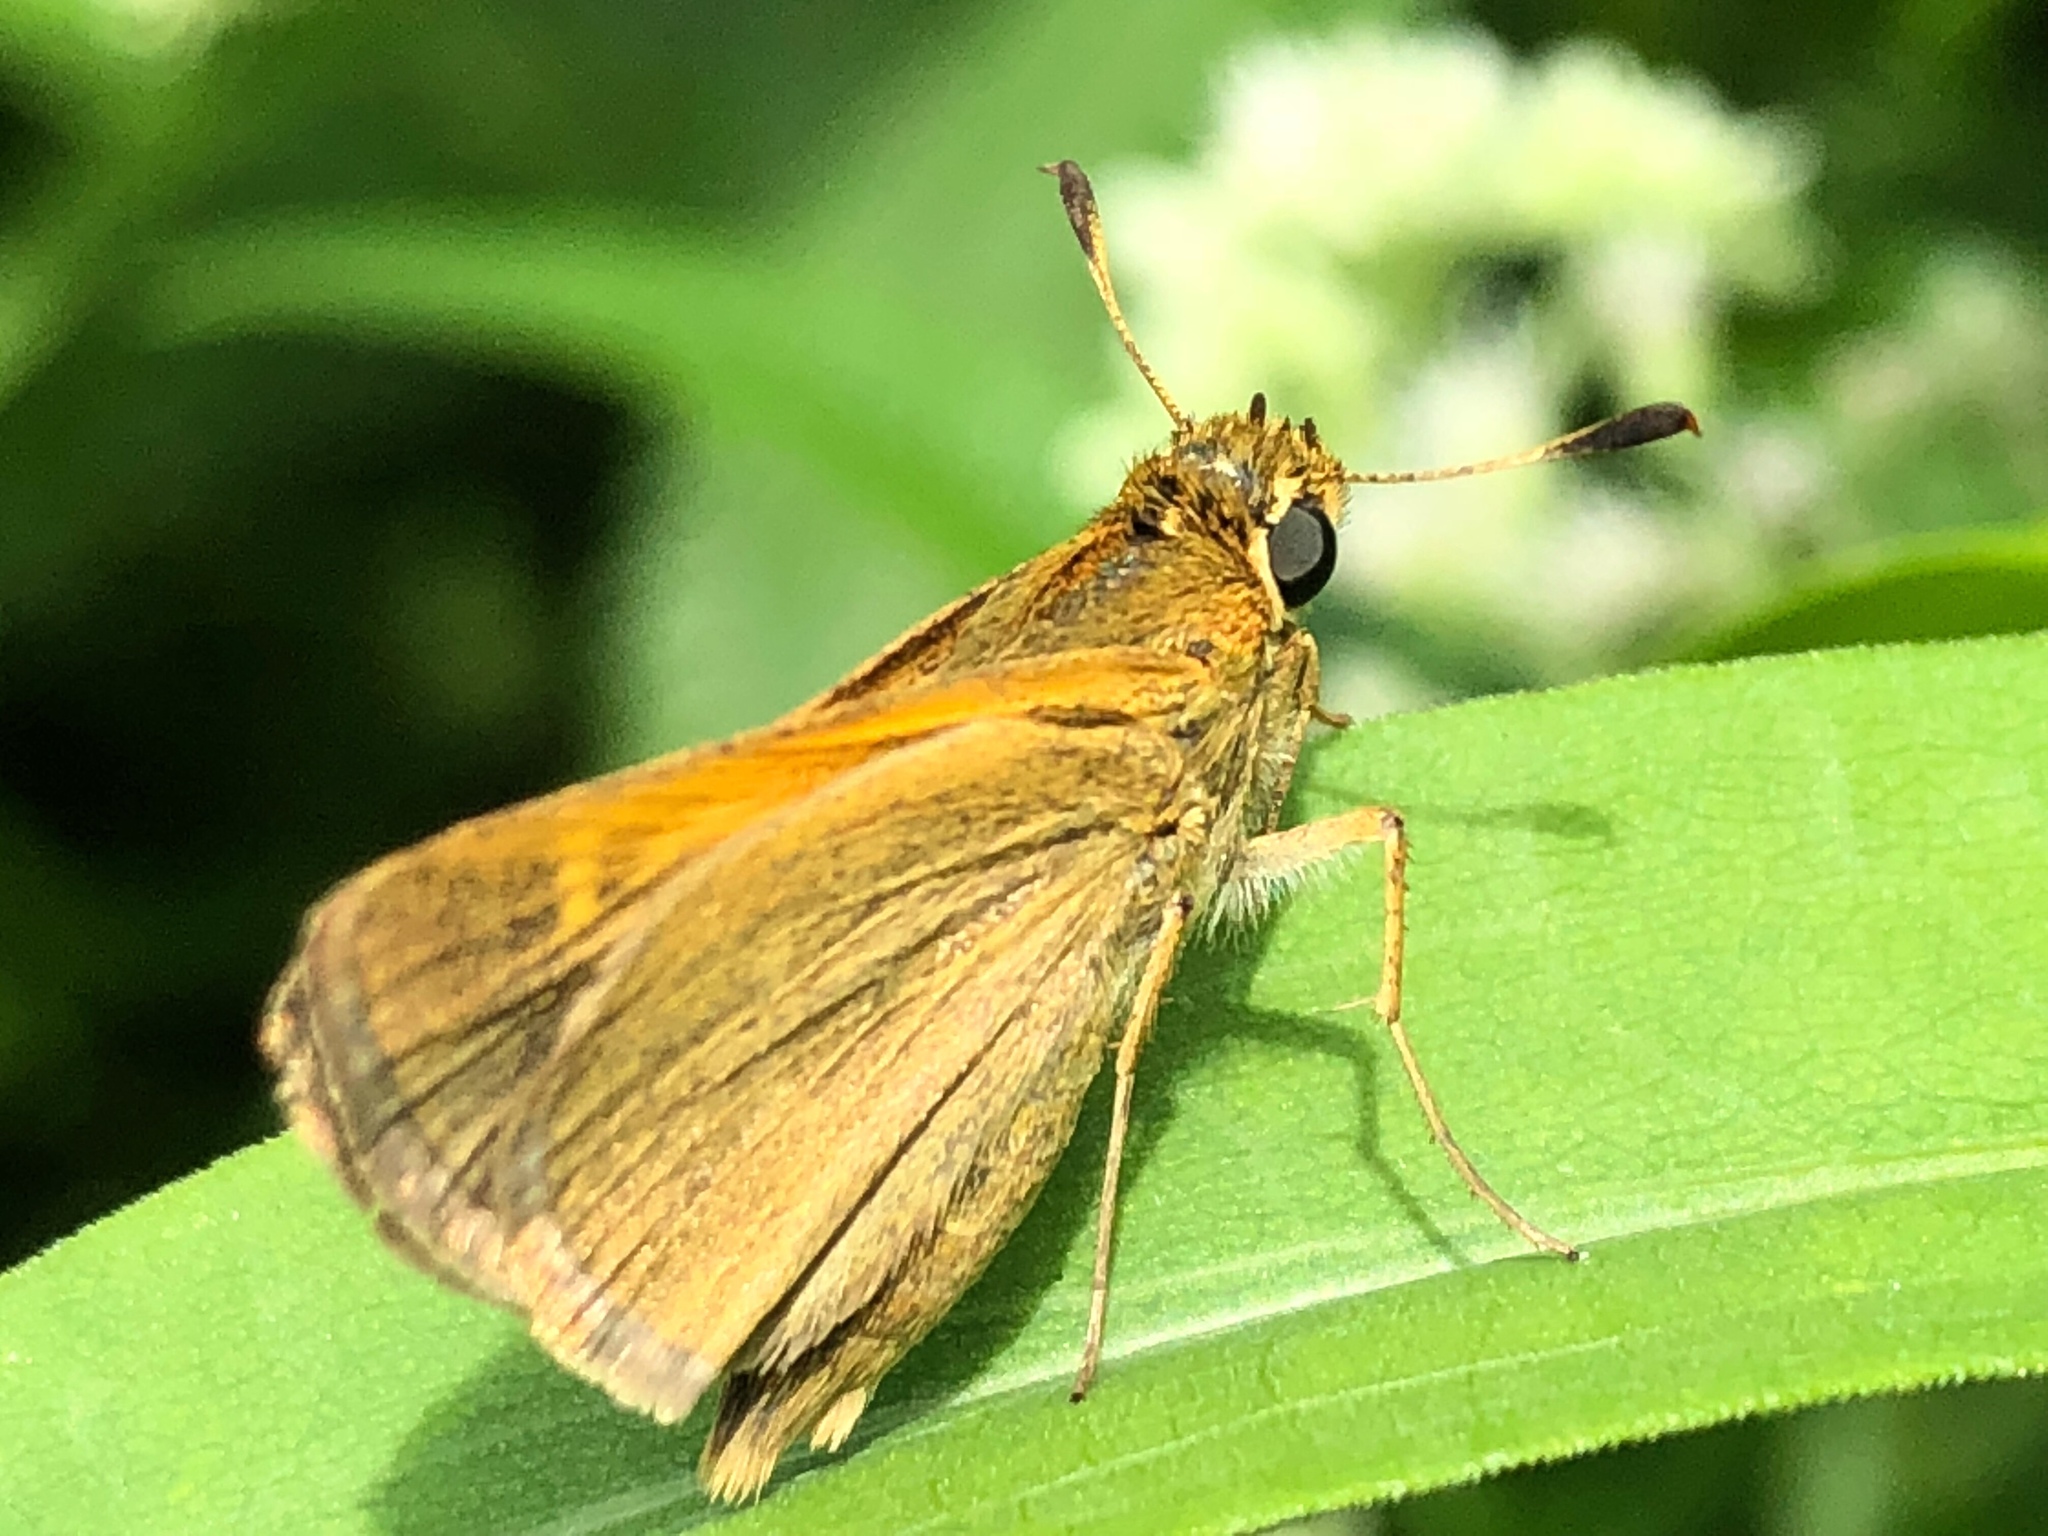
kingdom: Animalia
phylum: Arthropoda
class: Insecta
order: Lepidoptera
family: Hesperiidae
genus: Polites
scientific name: Polites themistocles
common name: Tawny-edged skipper
